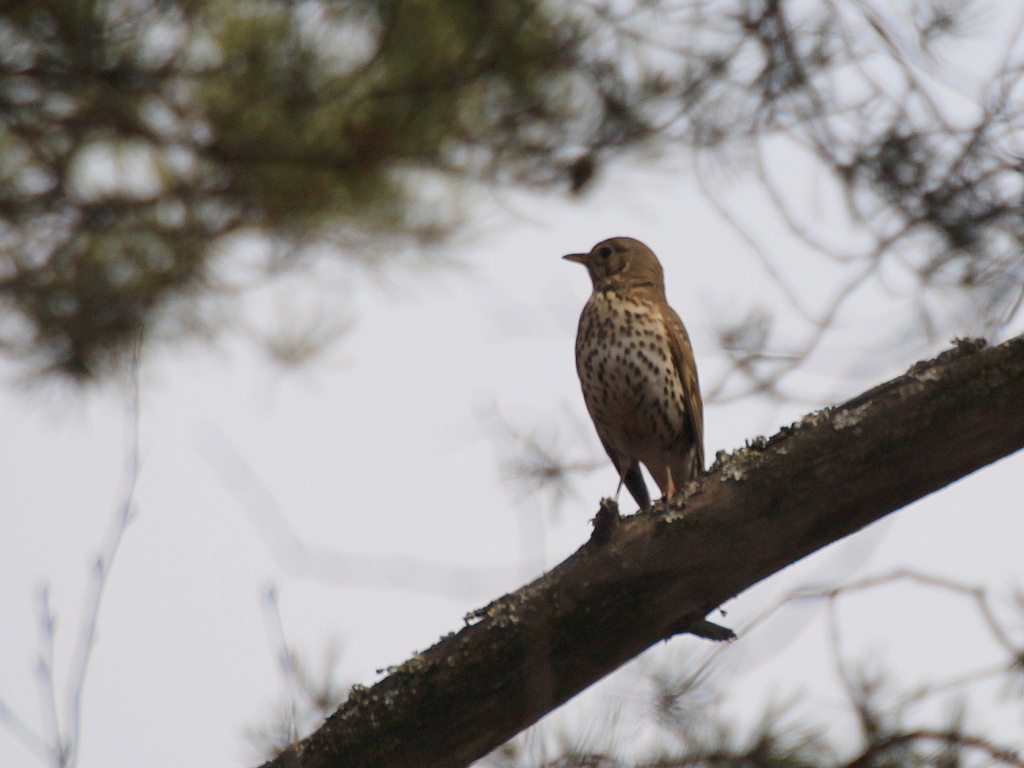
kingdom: Animalia
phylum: Chordata
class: Aves
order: Passeriformes
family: Turdidae
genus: Turdus
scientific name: Turdus philomelos
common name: Song thrush
